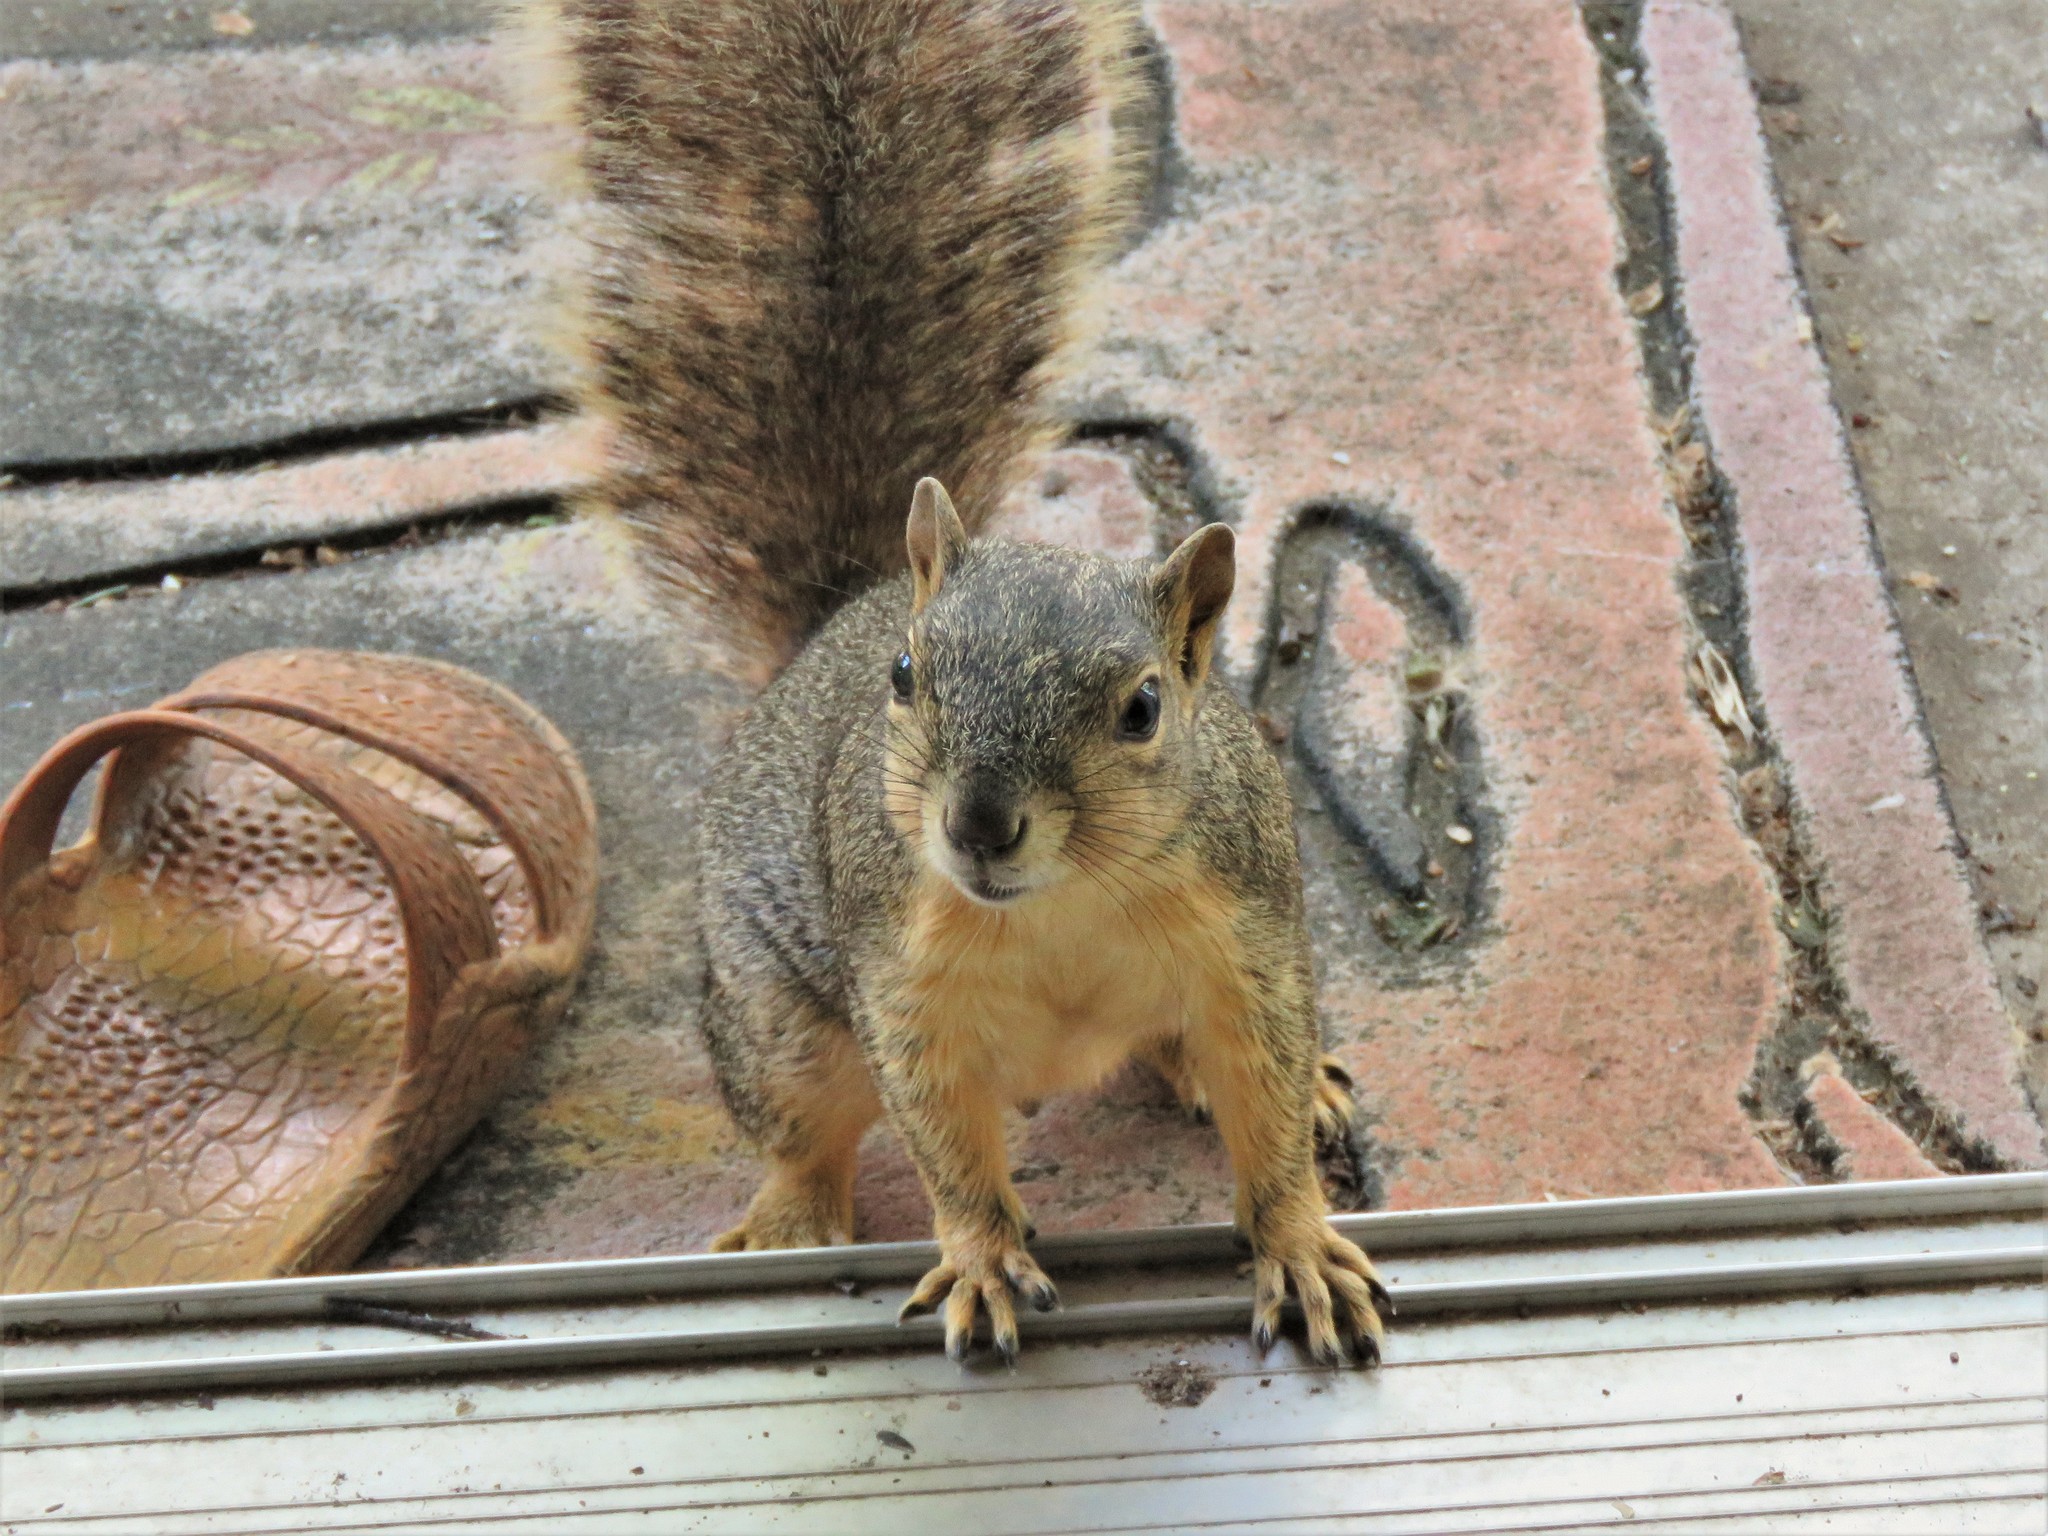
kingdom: Animalia
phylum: Chordata
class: Mammalia
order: Rodentia
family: Sciuridae
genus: Sciurus
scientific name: Sciurus niger
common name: Fox squirrel
